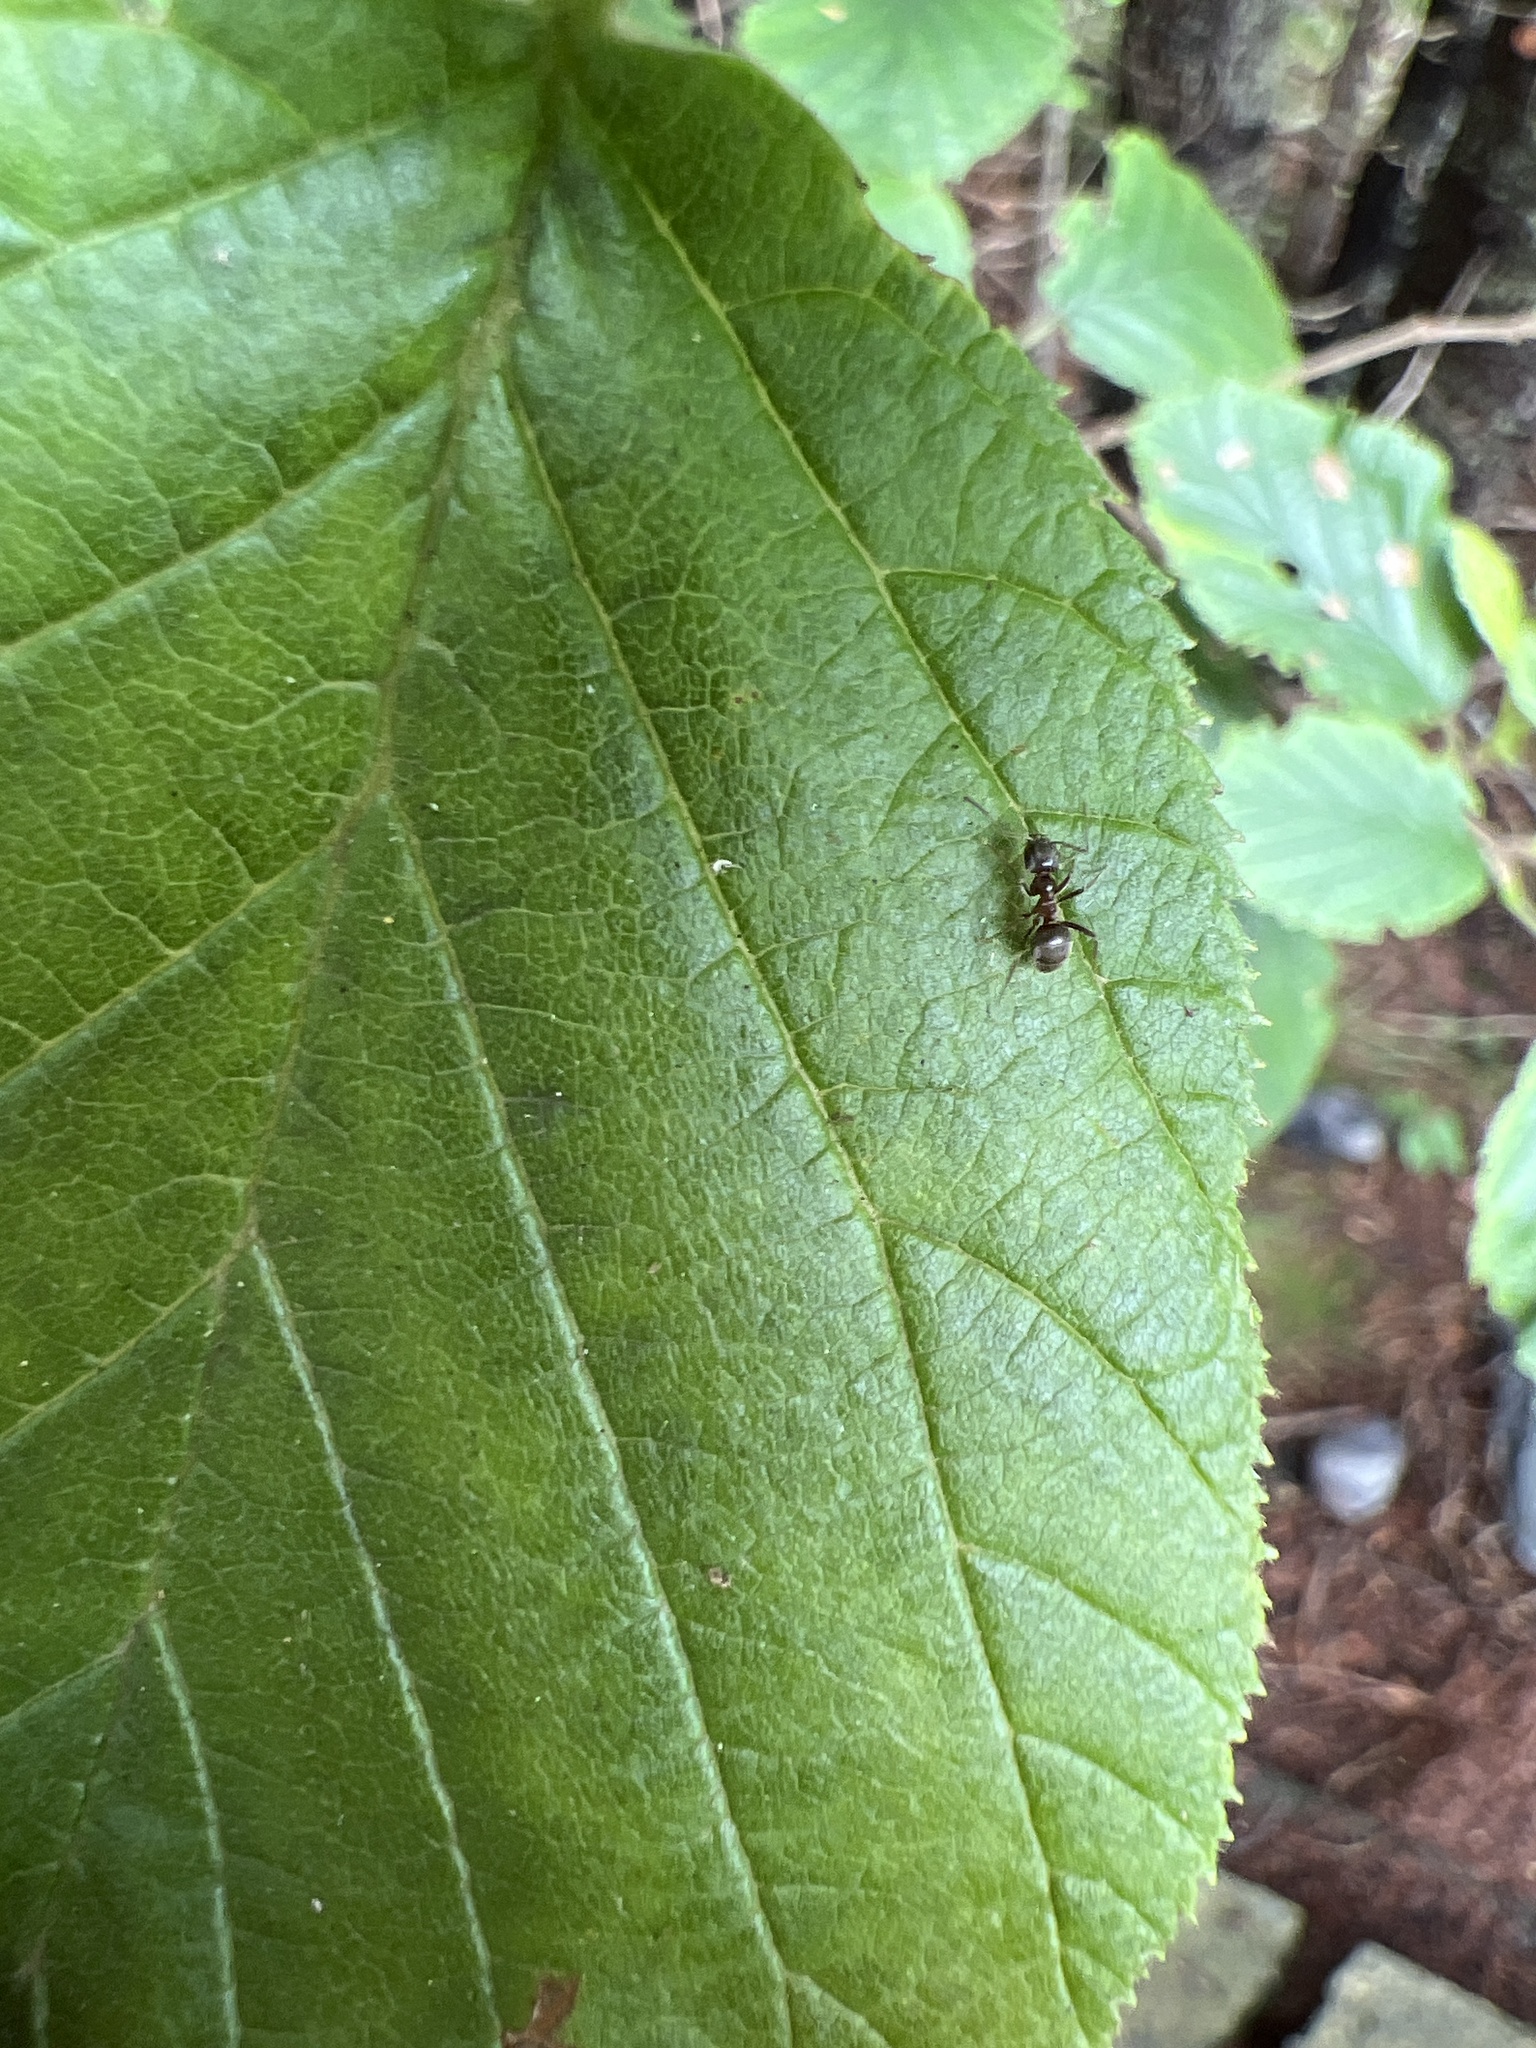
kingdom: Animalia
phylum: Arthropoda
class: Insecta
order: Hymenoptera
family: Formicidae
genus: Lasius
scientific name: Lasius
